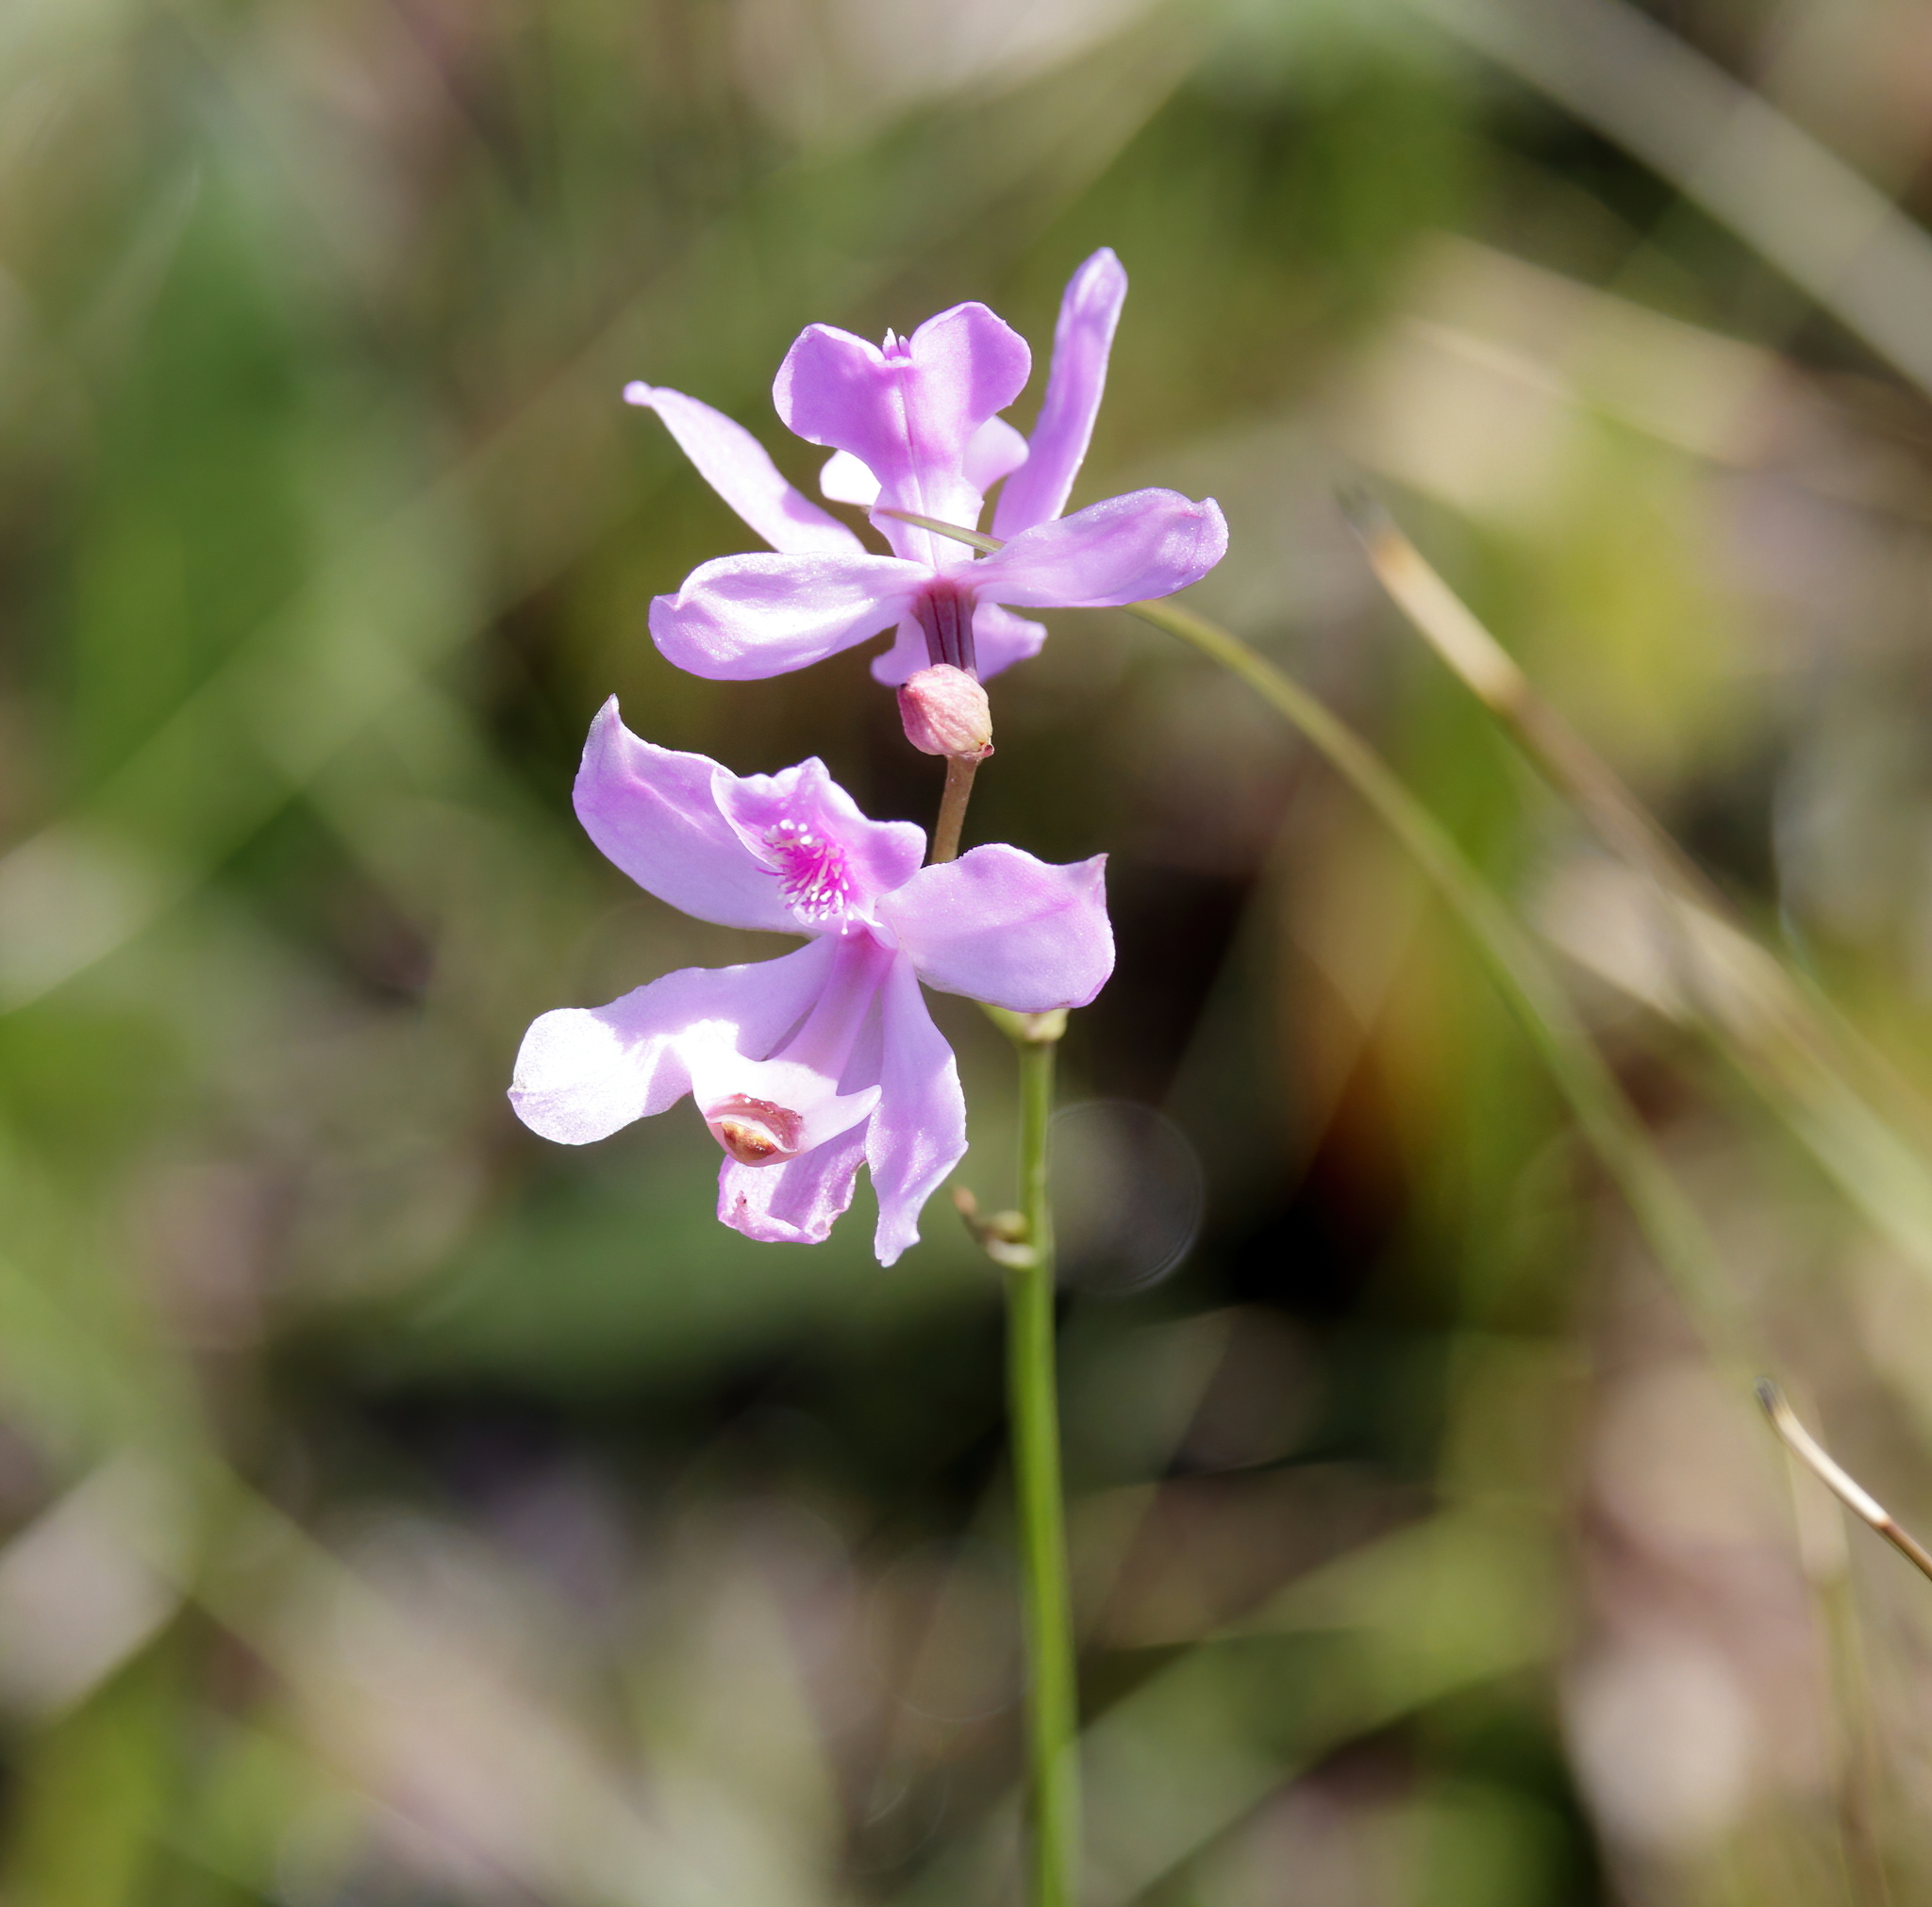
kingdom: Plantae
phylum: Tracheophyta
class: Liliopsida
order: Asparagales
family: Orchidaceae
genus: Calopogon
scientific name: Calopogon pallidus
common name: Pale grasspink
